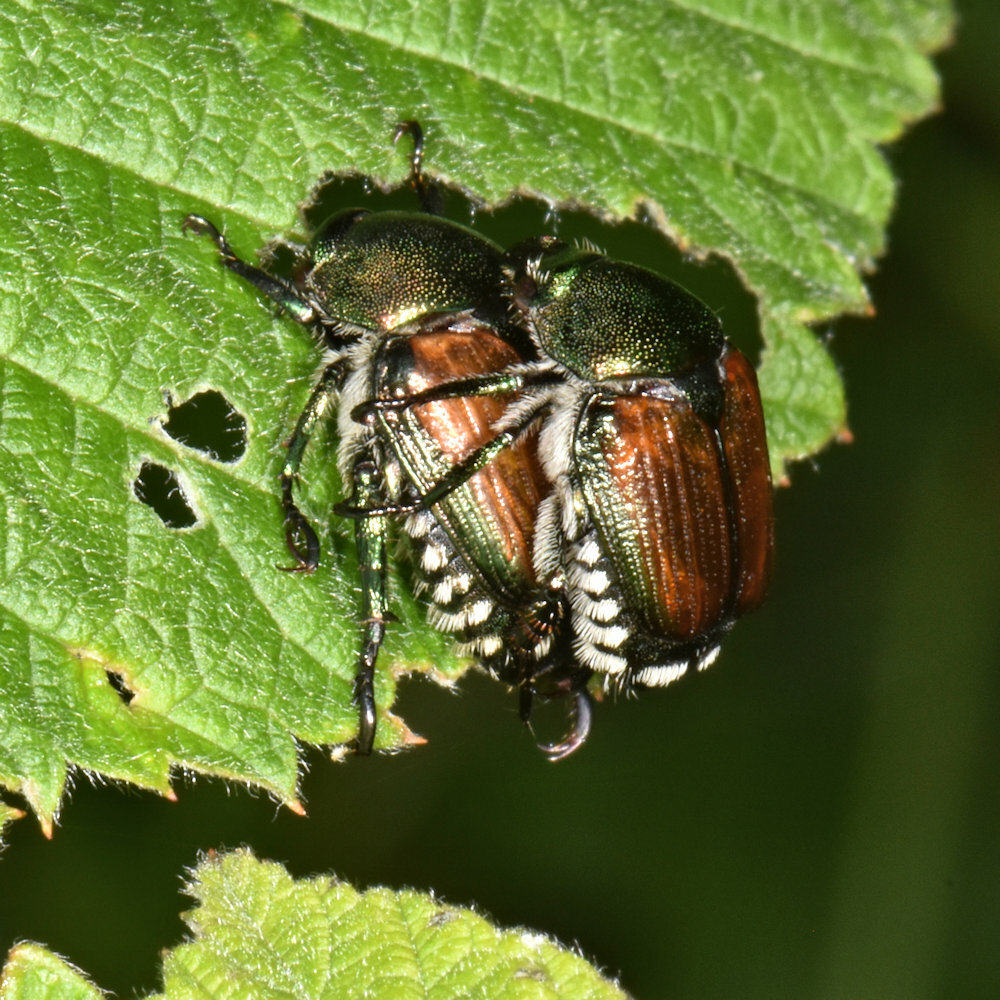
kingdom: Animalia
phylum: Arthropoda
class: Insecta
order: Coleoptera
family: Scarabaeidae
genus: Popillia
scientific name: Popillia japonica
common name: Japanese beetle
